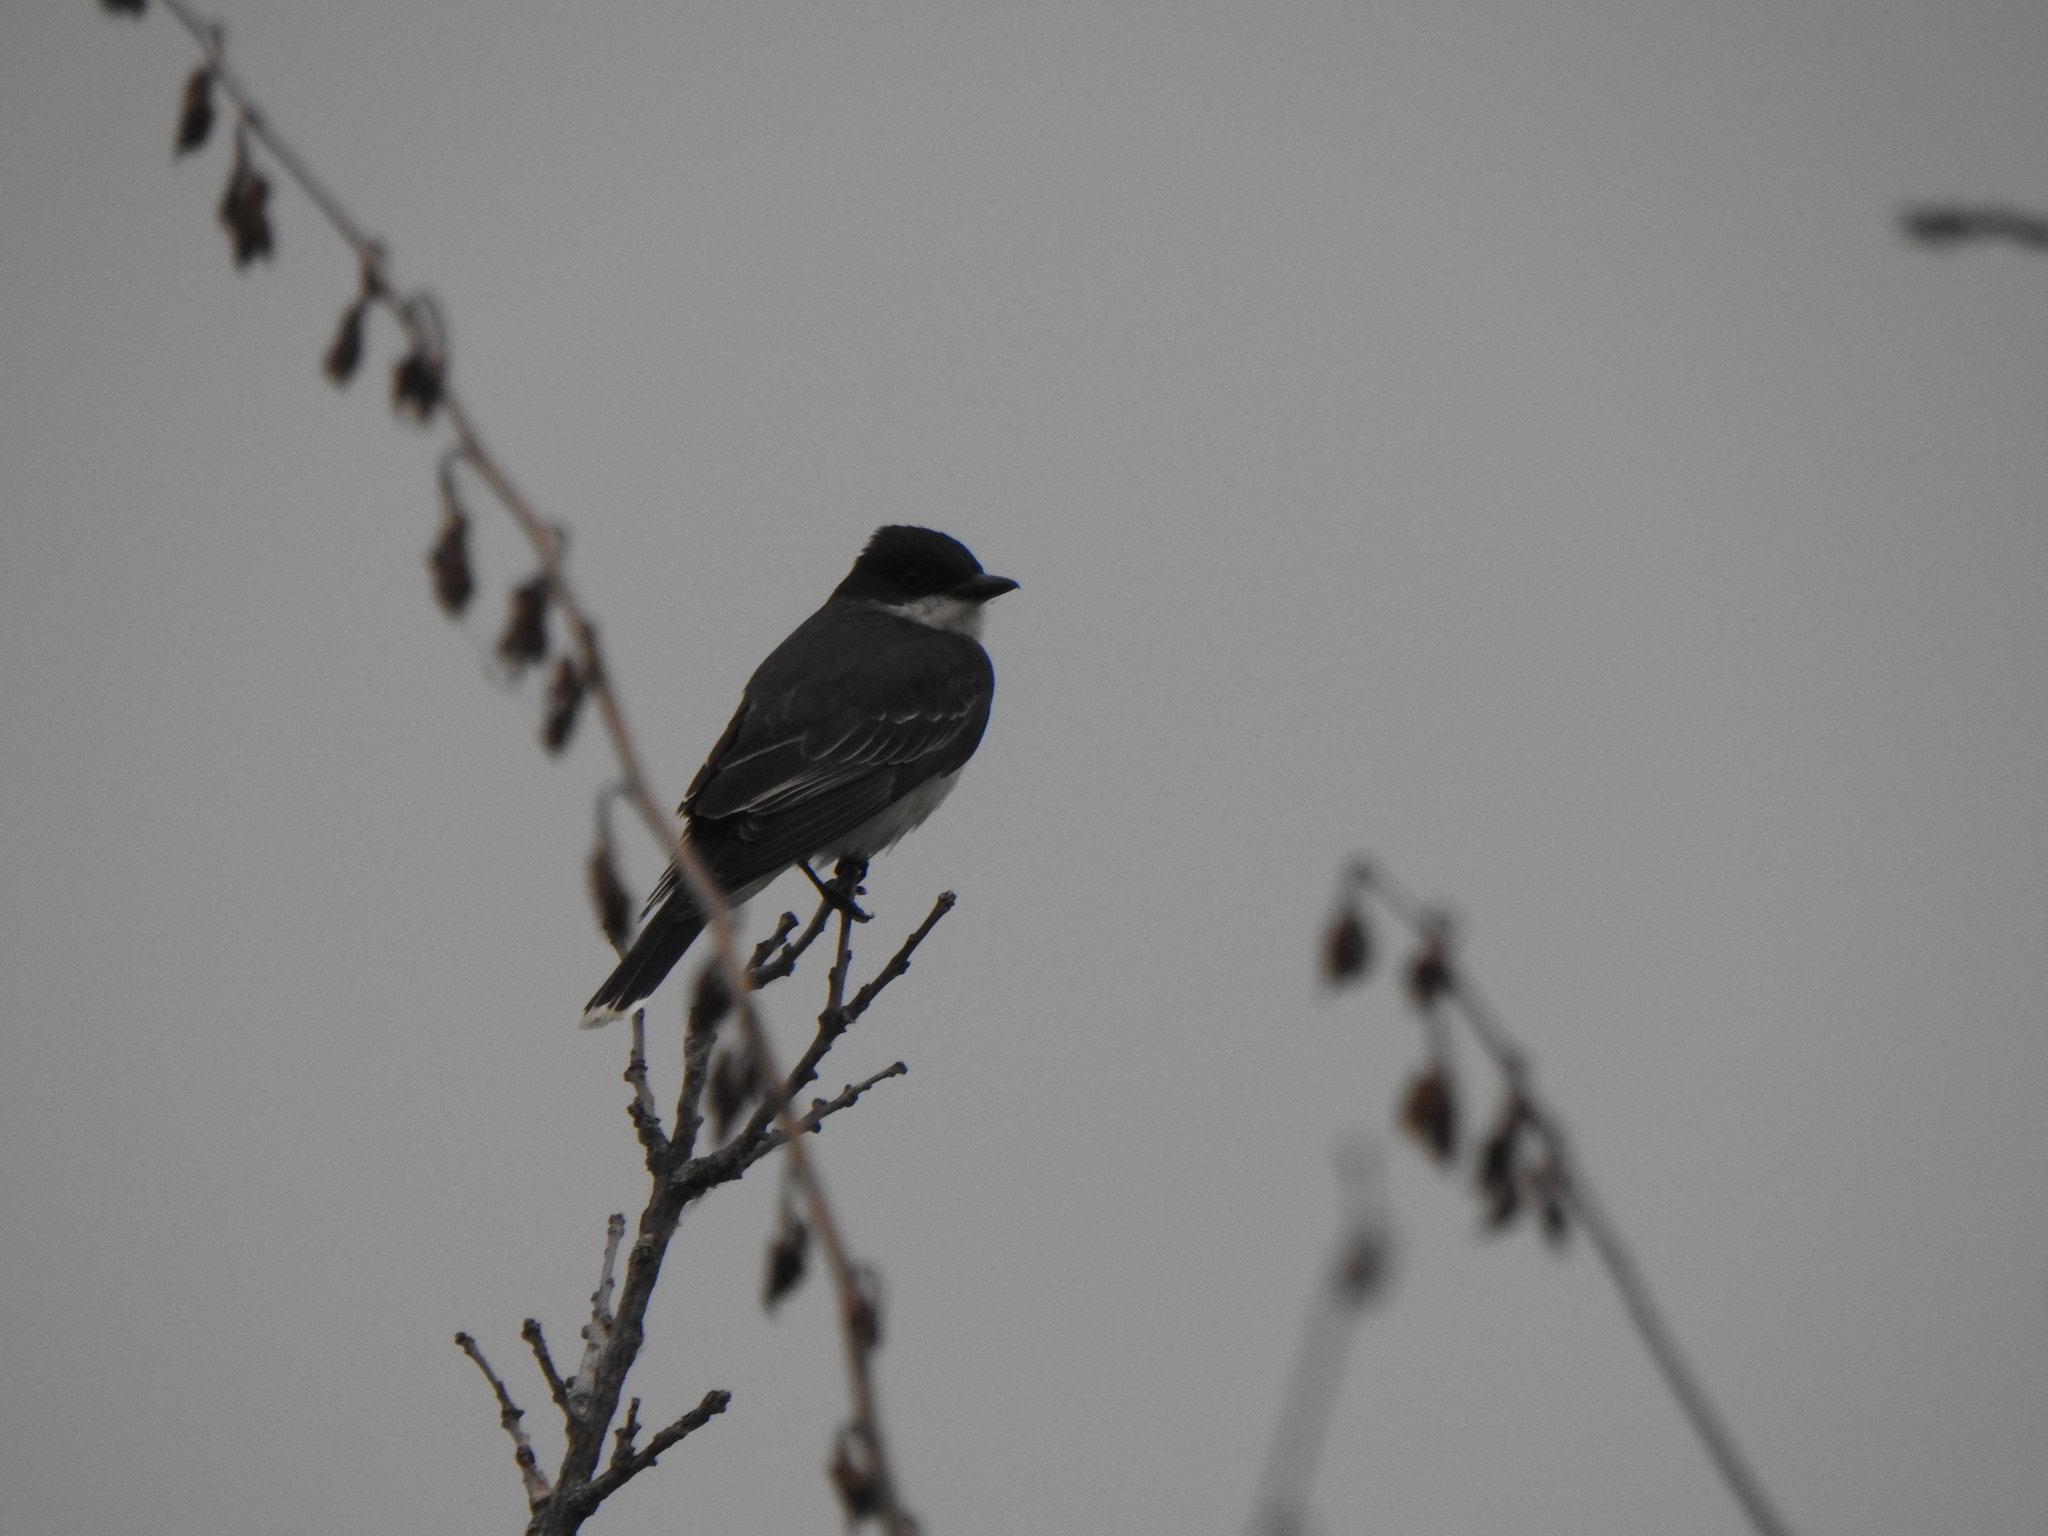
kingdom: Animalia
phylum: Chordata
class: Aves
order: Passeriformes
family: Tyrannidae
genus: Tyrannus
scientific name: Tyrannus tyrannus
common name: Eastern kingbird
